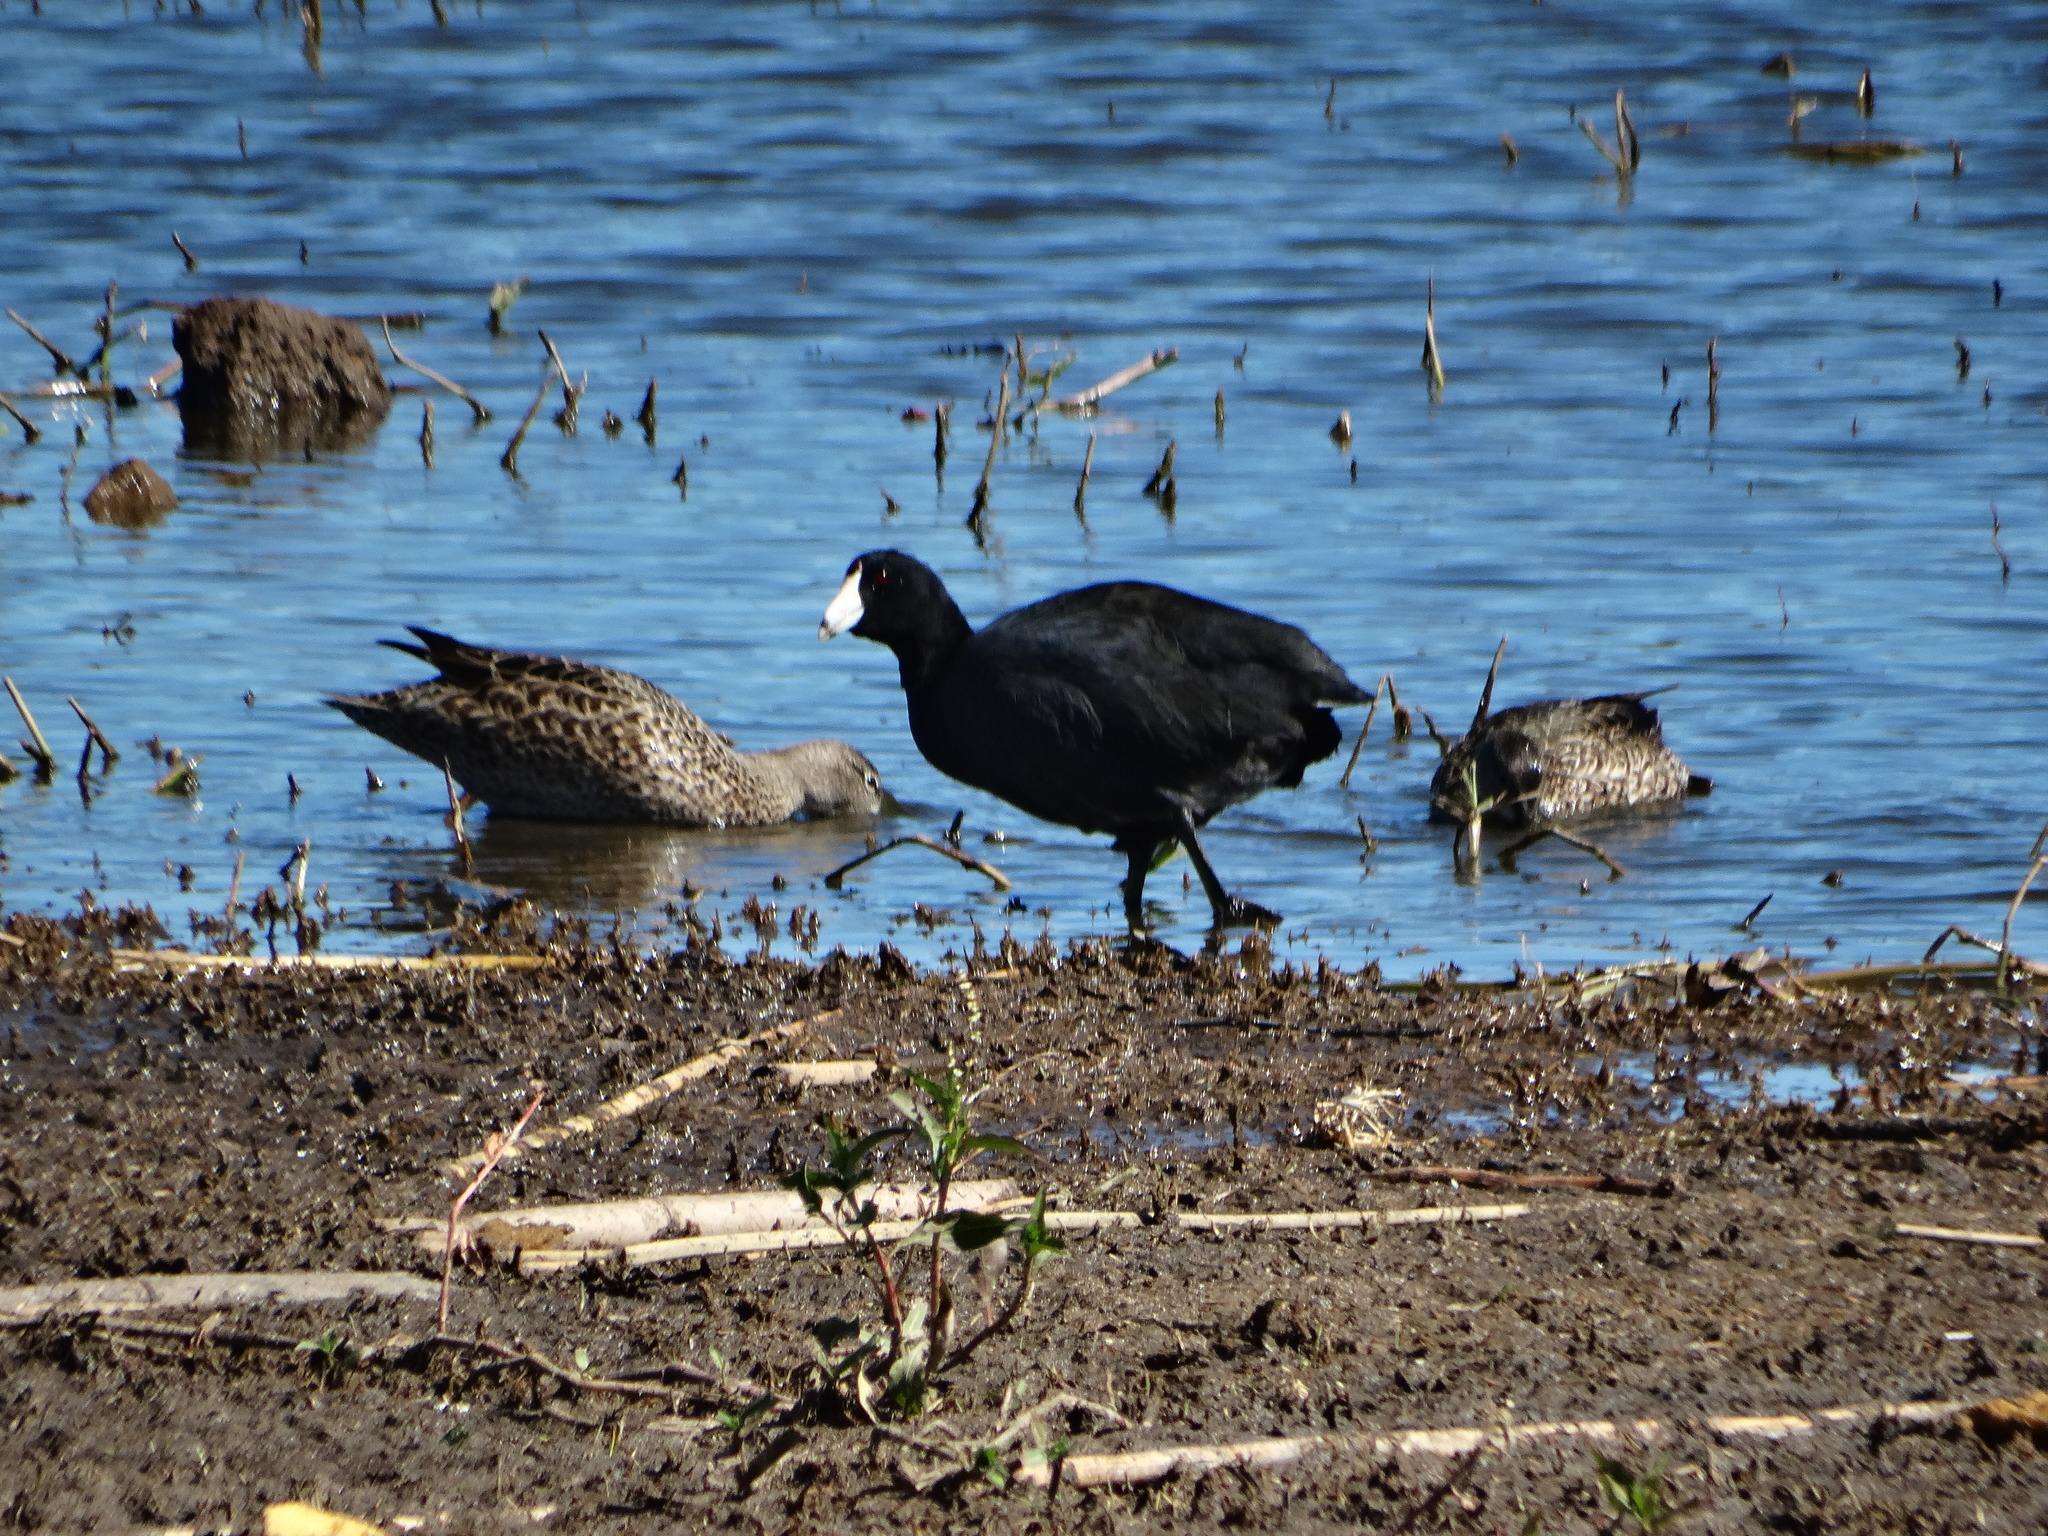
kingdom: Animalia
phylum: Chordata
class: Aves
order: Gruiformes
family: Rallidae
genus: Fulica
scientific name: Fulica americana
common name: American coot
